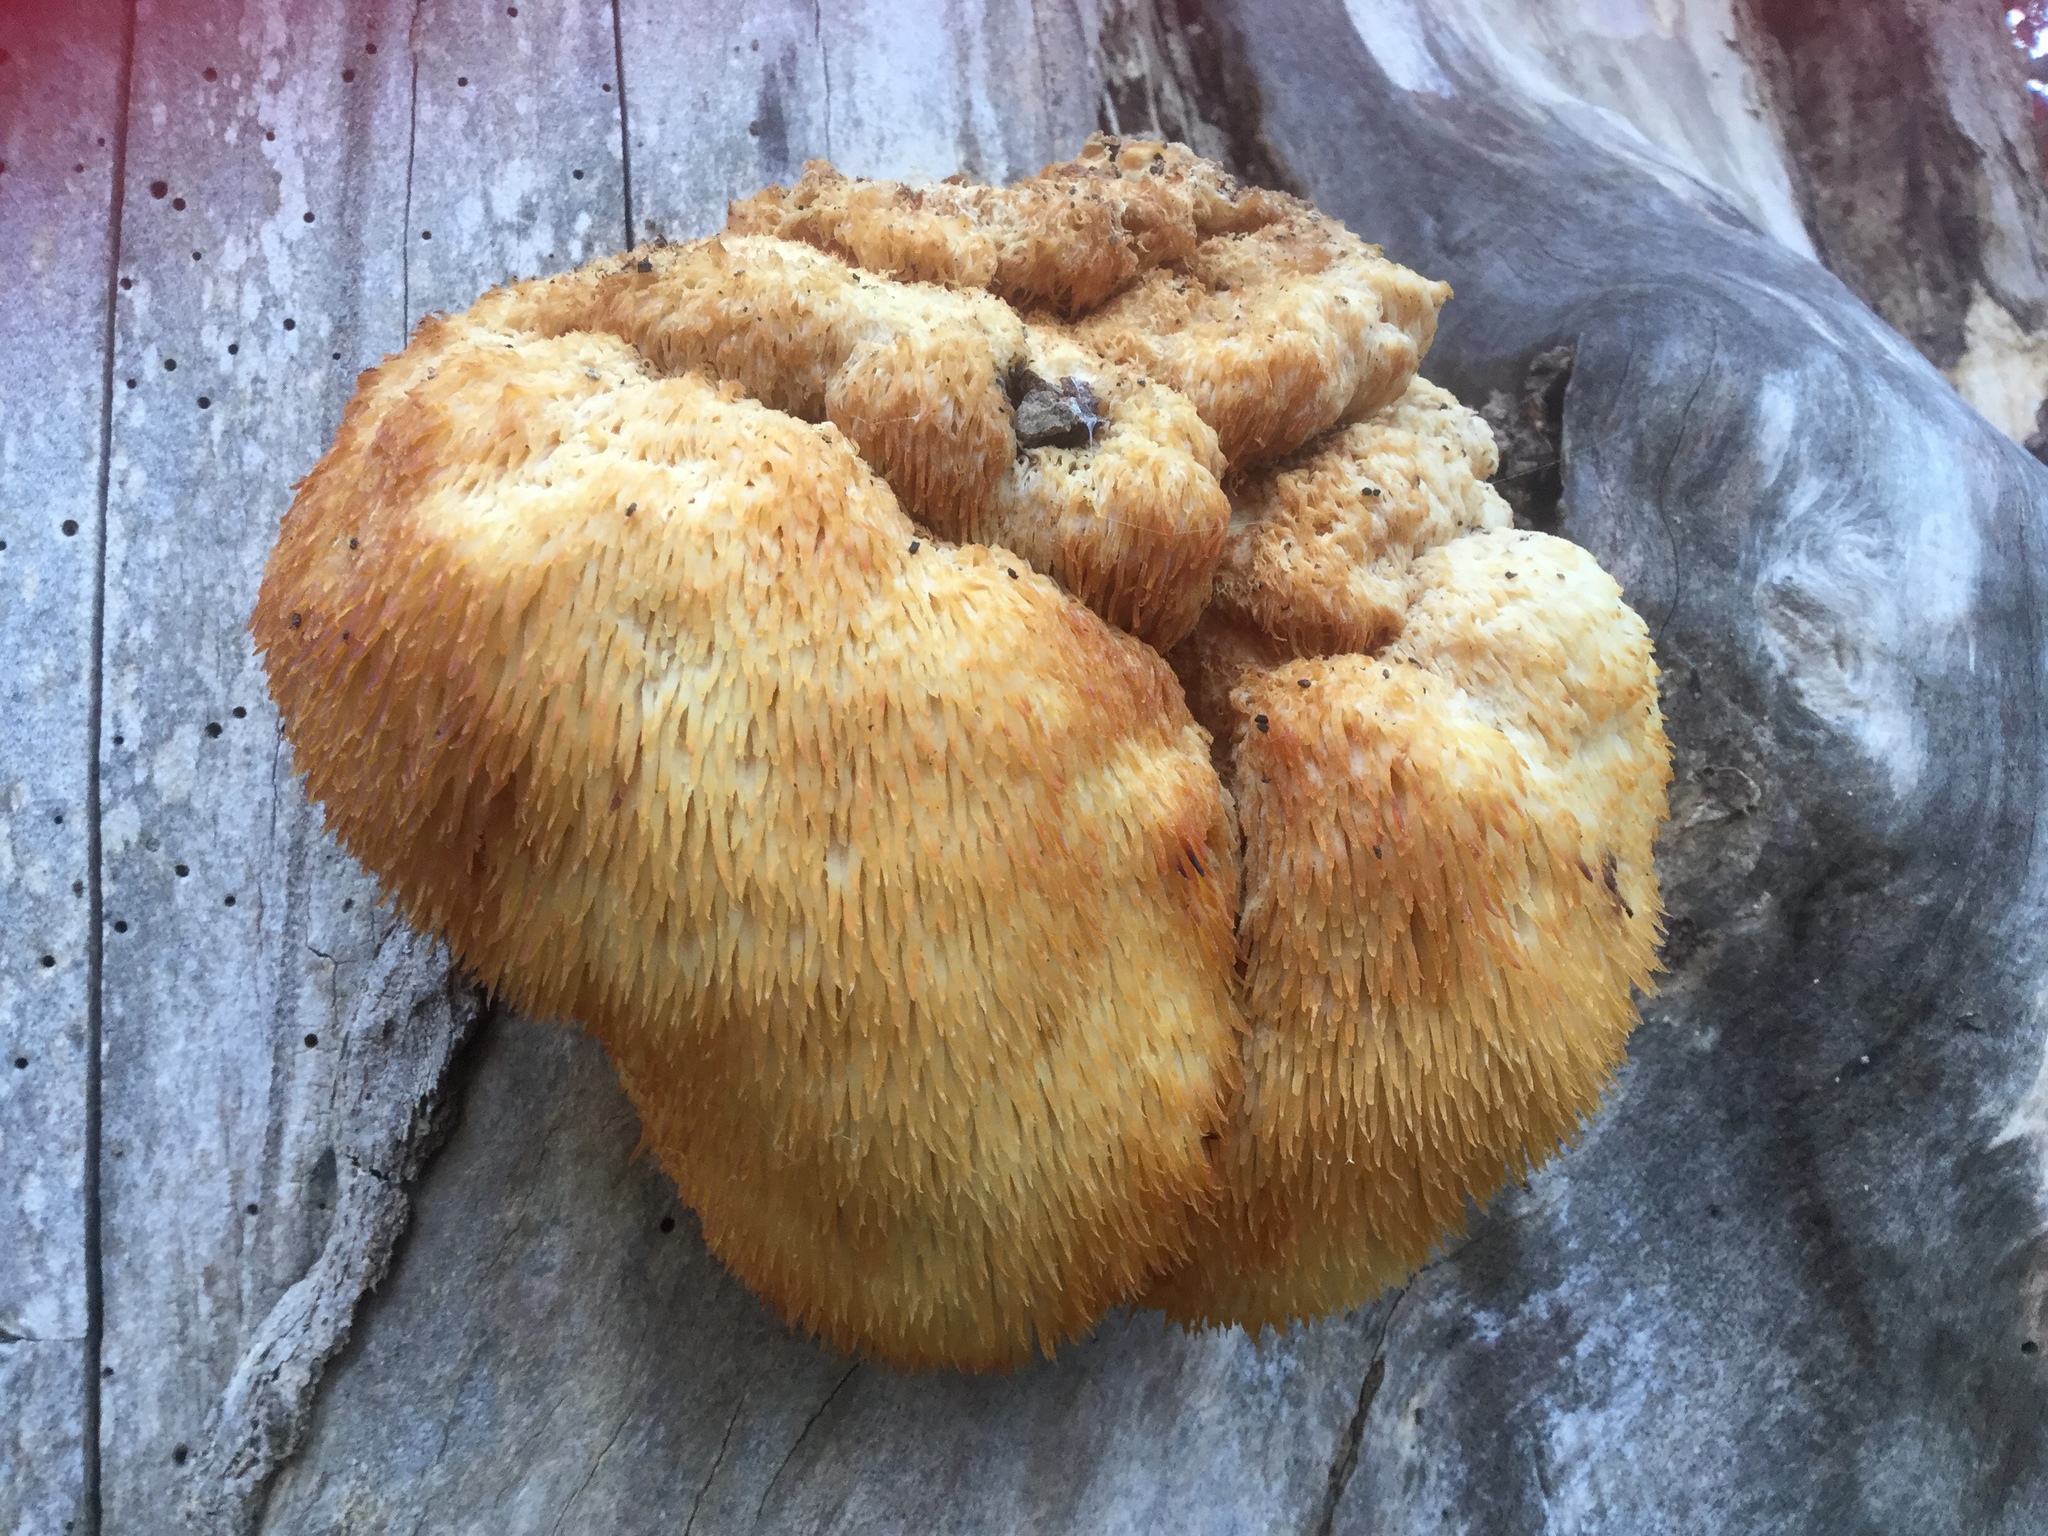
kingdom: Fungi
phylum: Basidiomycota
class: Agaricomycetes
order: Russulales
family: Hericiaceae
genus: Hericium
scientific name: Hericium erinaceus
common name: Bearded tooth
